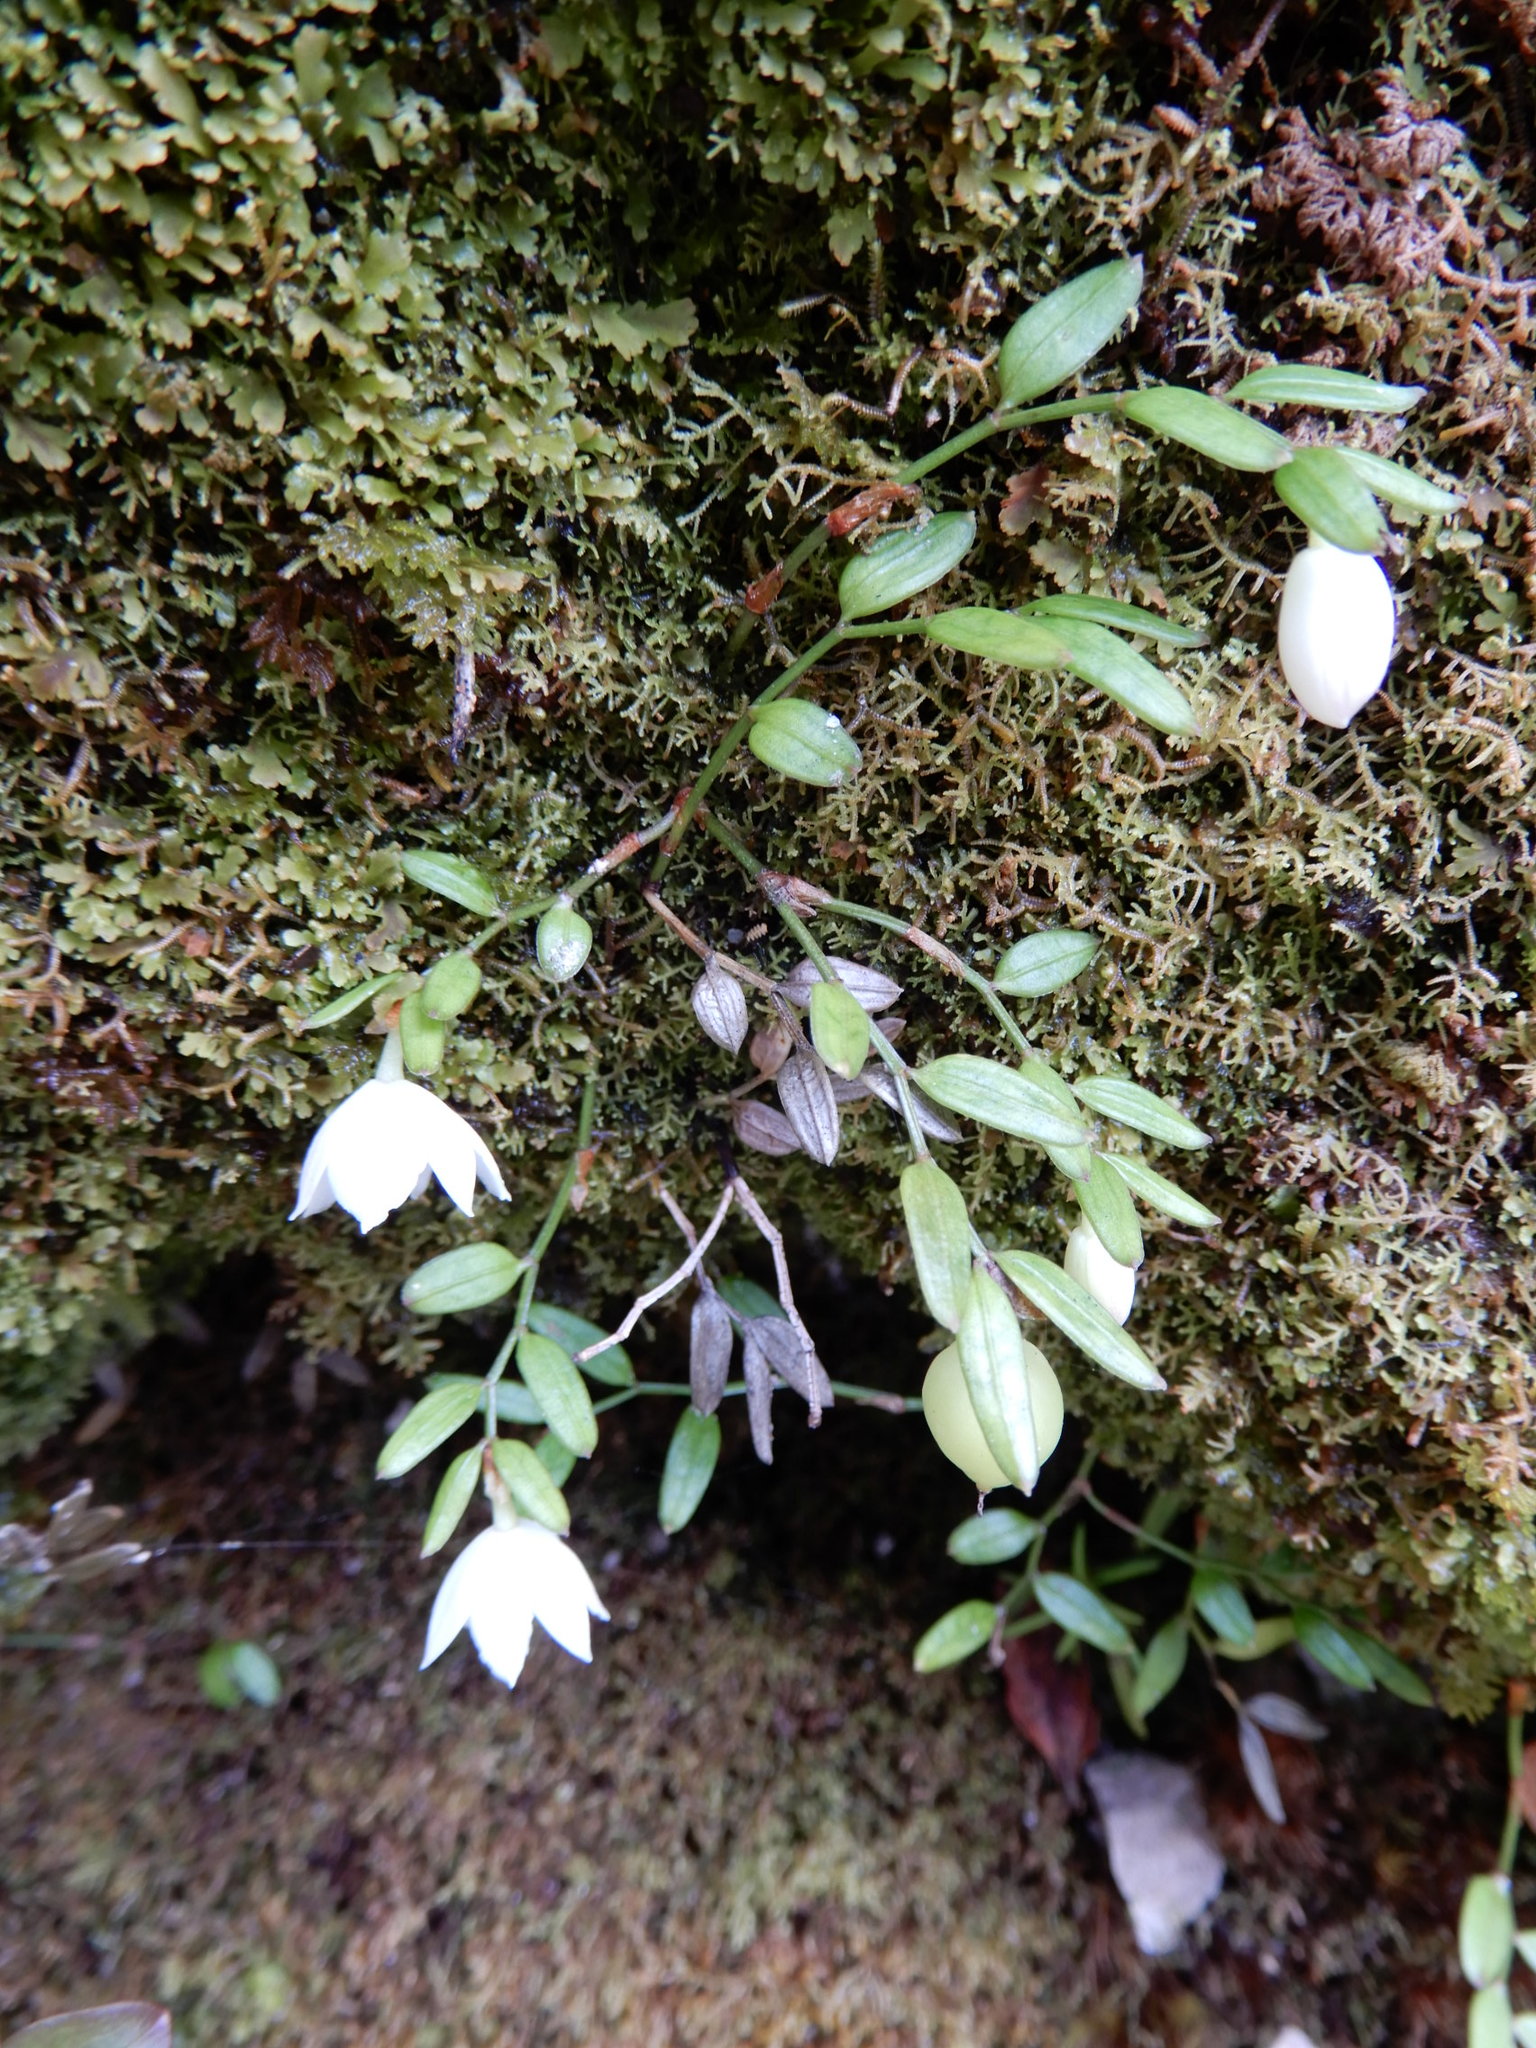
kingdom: Plantae
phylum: Tracheophyta
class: Liliopsida
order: Liliales
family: Alstroemeriaceae
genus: Luzuriaga
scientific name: Luzuriaga parviflora
